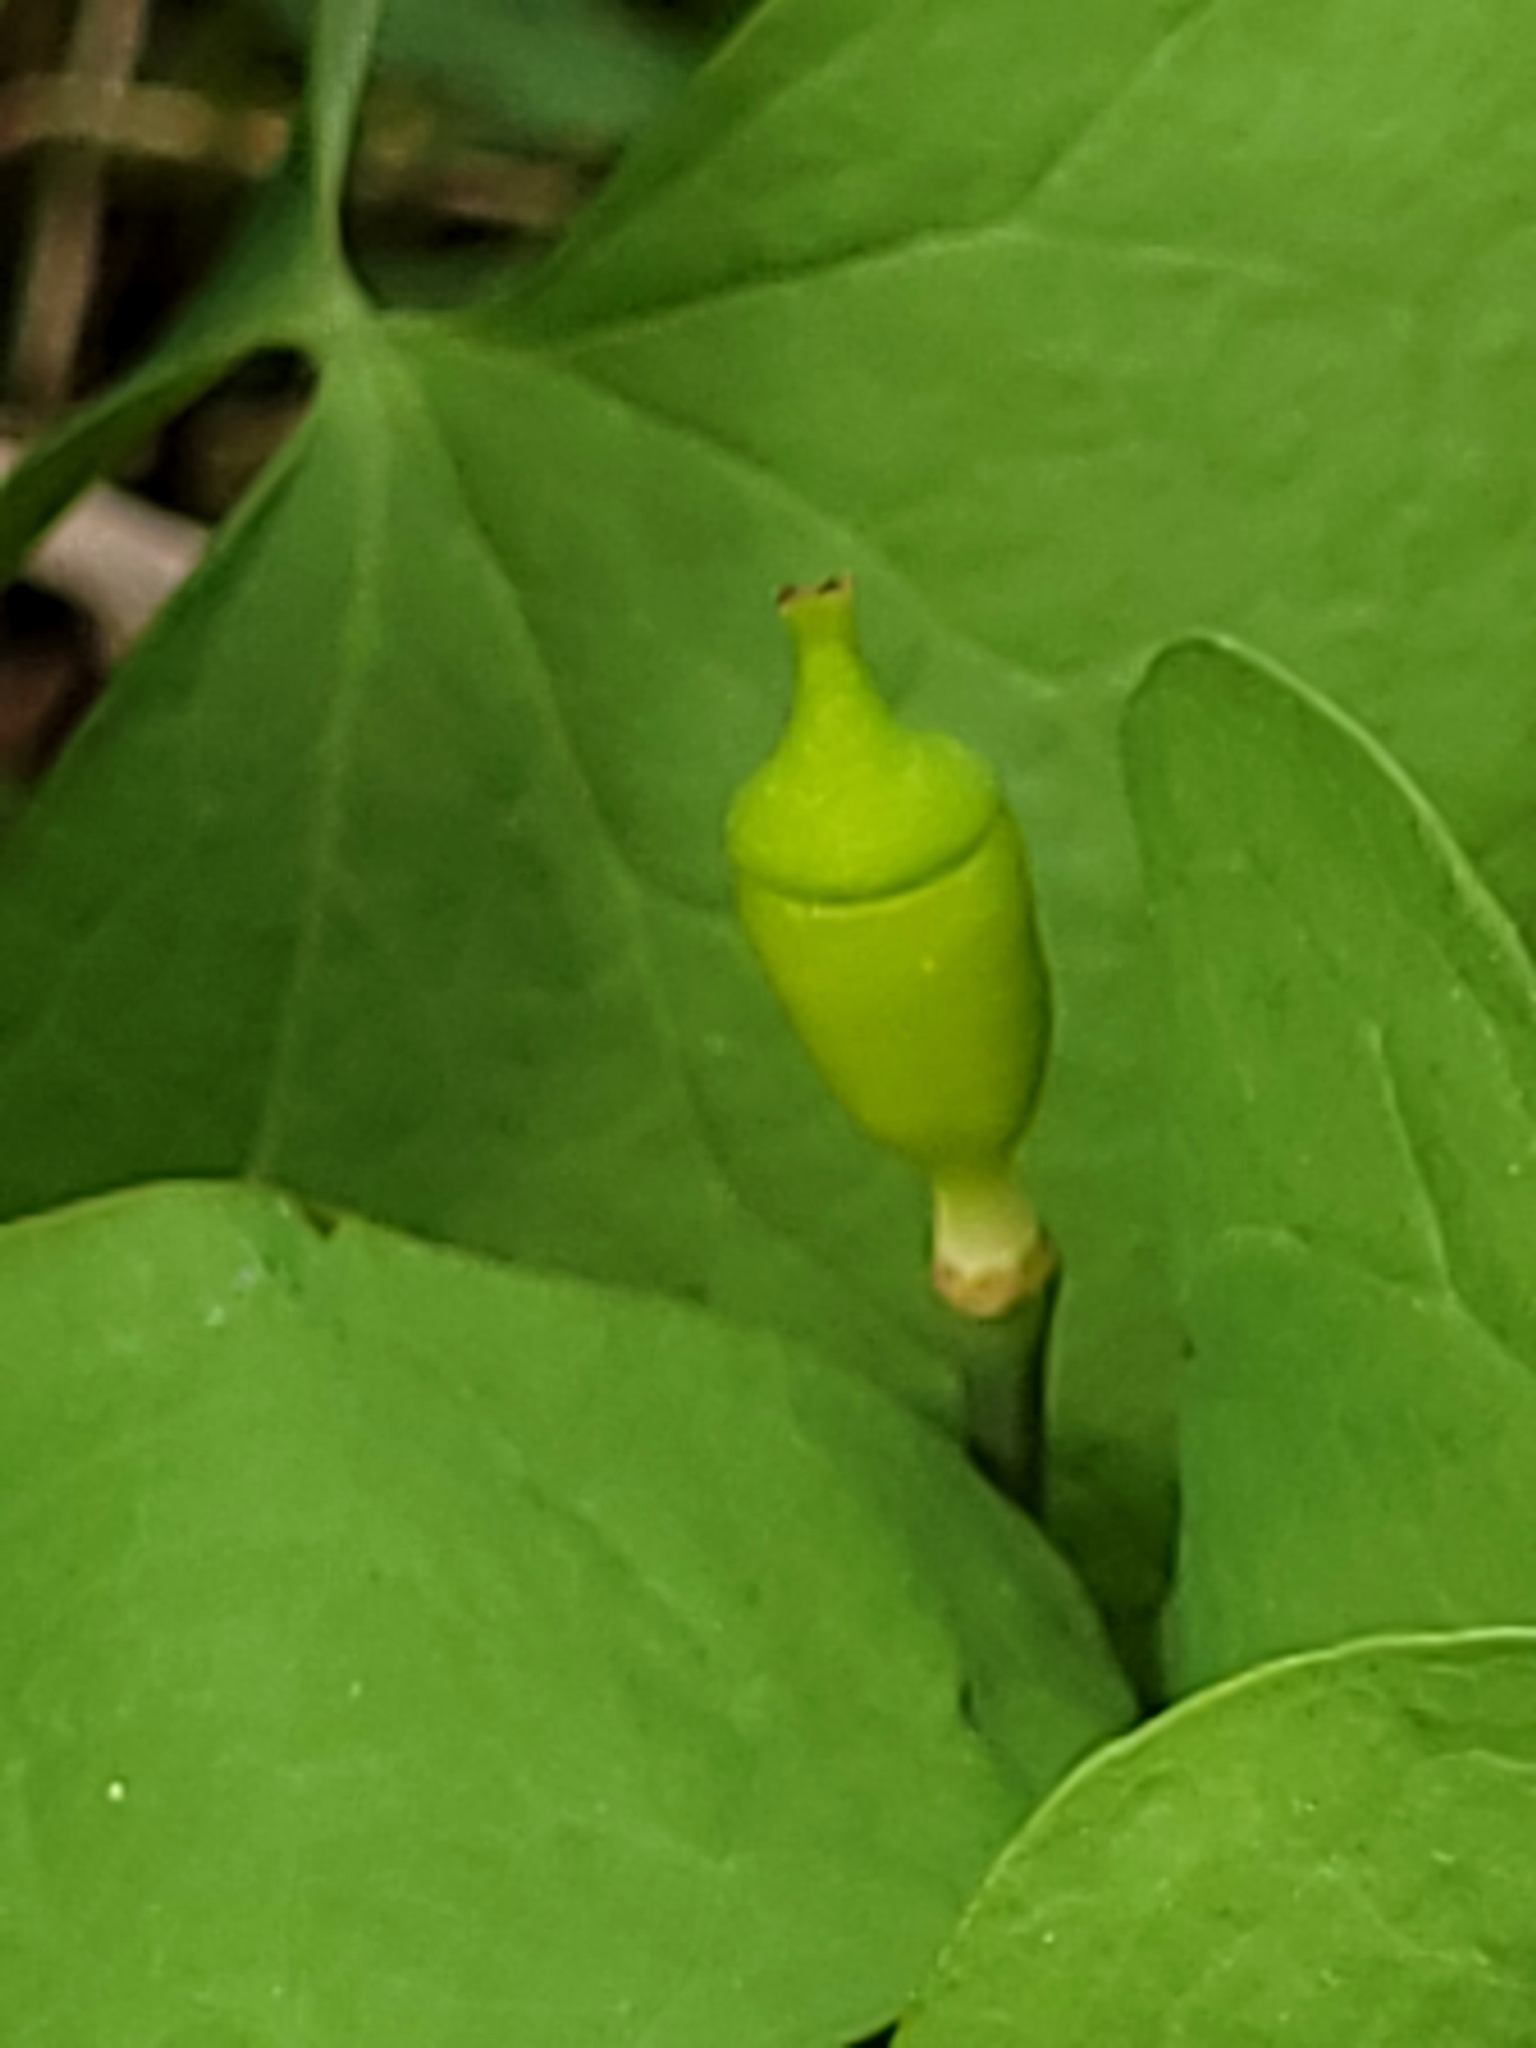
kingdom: Plantae
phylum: Tracheophyta
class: Magnoliopsida
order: Ranunculales
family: Berberidaceae
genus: Jeffersonia
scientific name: Jeffersonia diphylla
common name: Rheumatism-root
